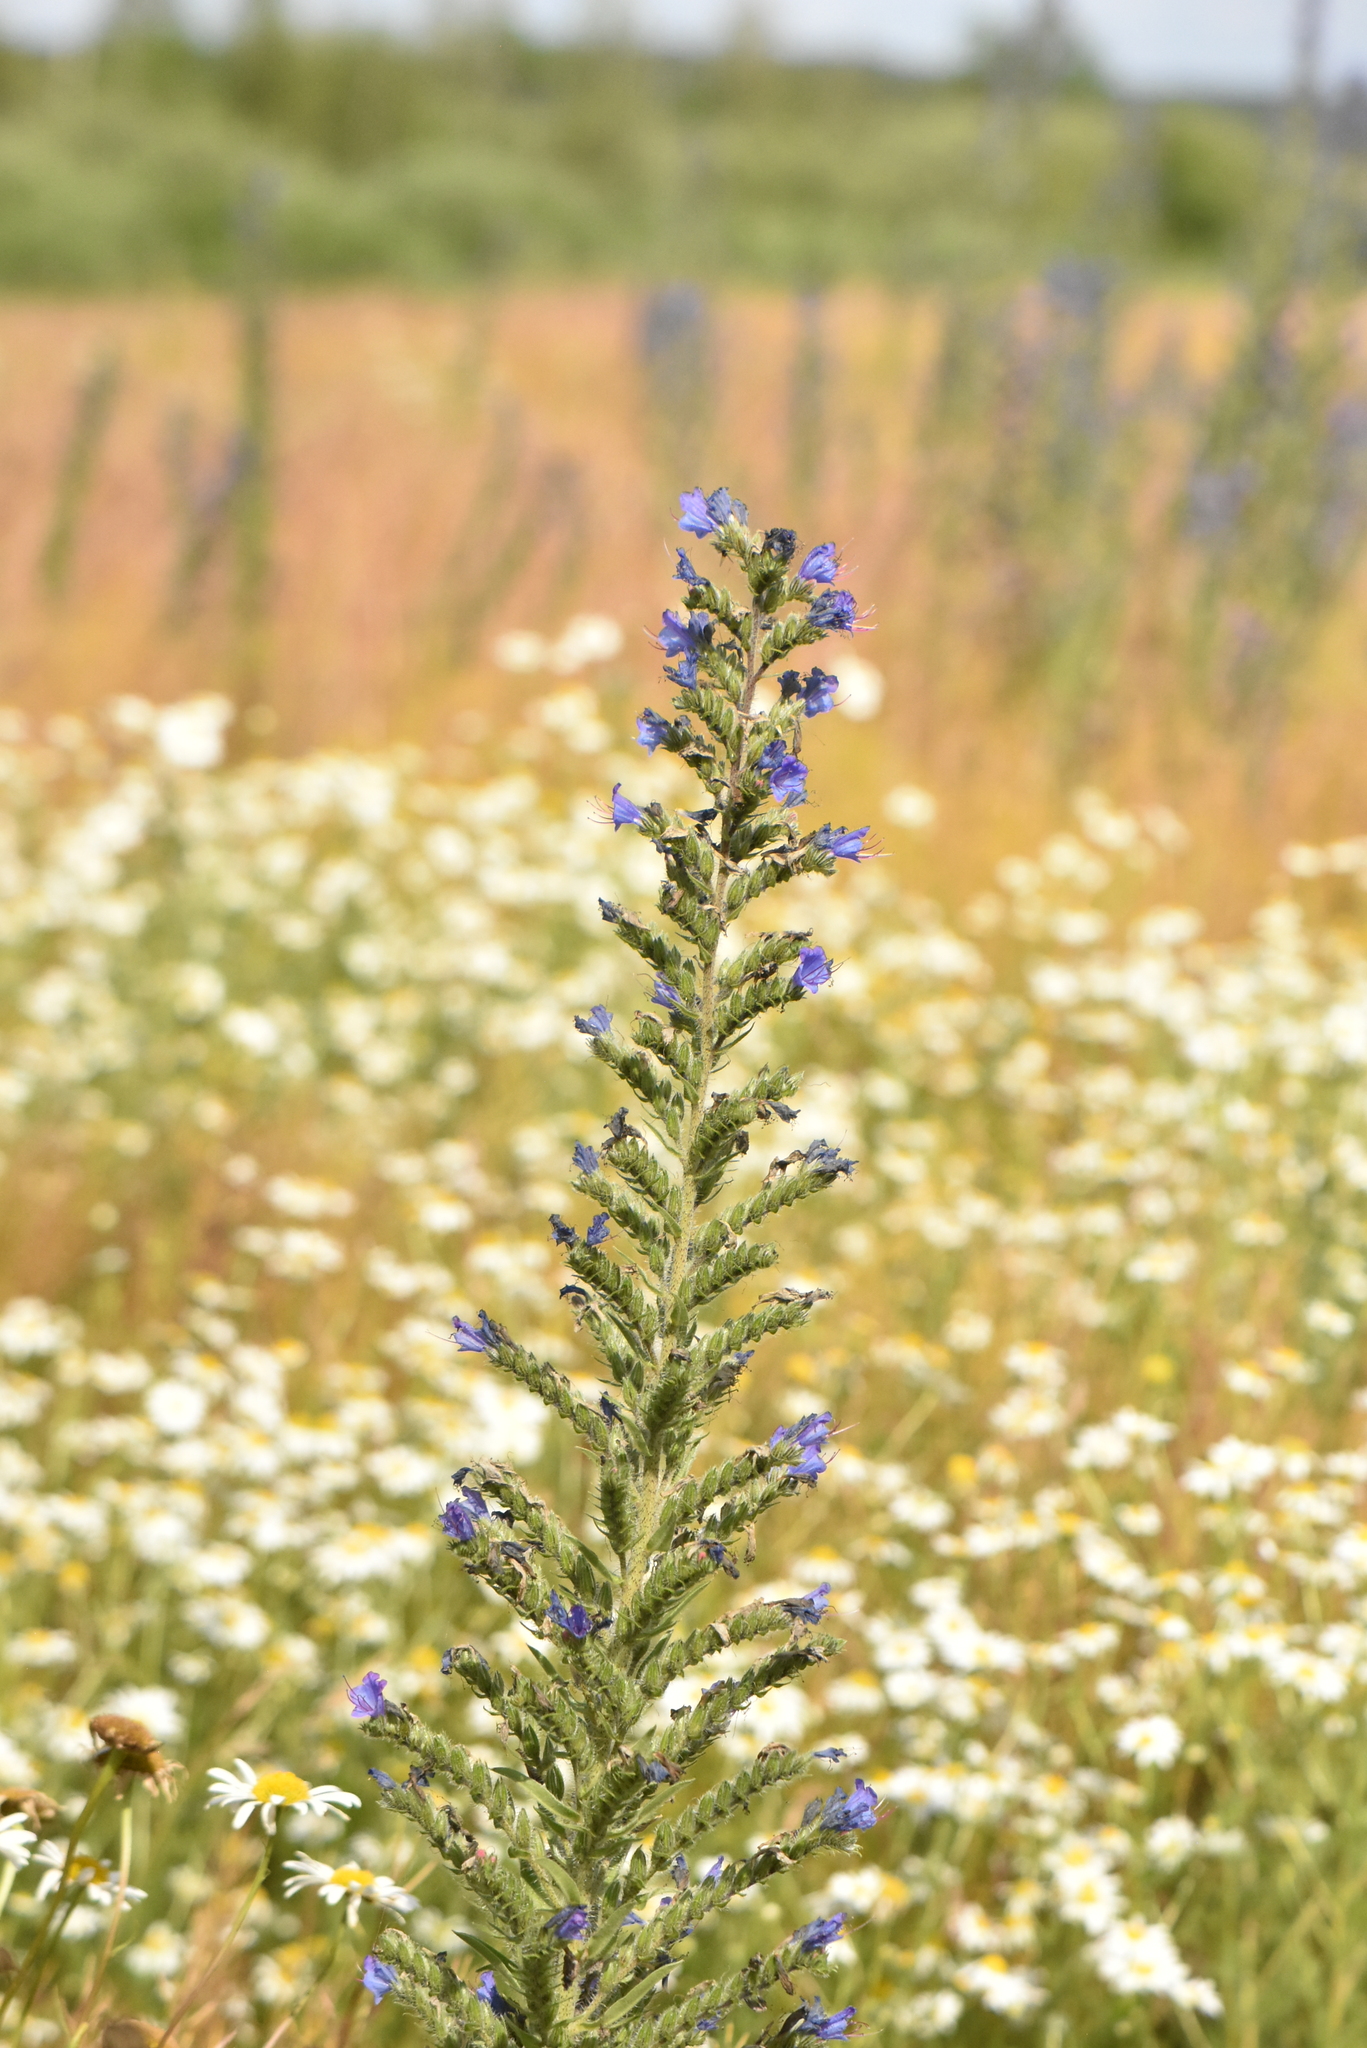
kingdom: Plantae
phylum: Tracheophyta
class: Magnoliopsida
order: Boraginales
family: Boraginaceae
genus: Echium
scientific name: Echium vulgare
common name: Common viper's bugloss
